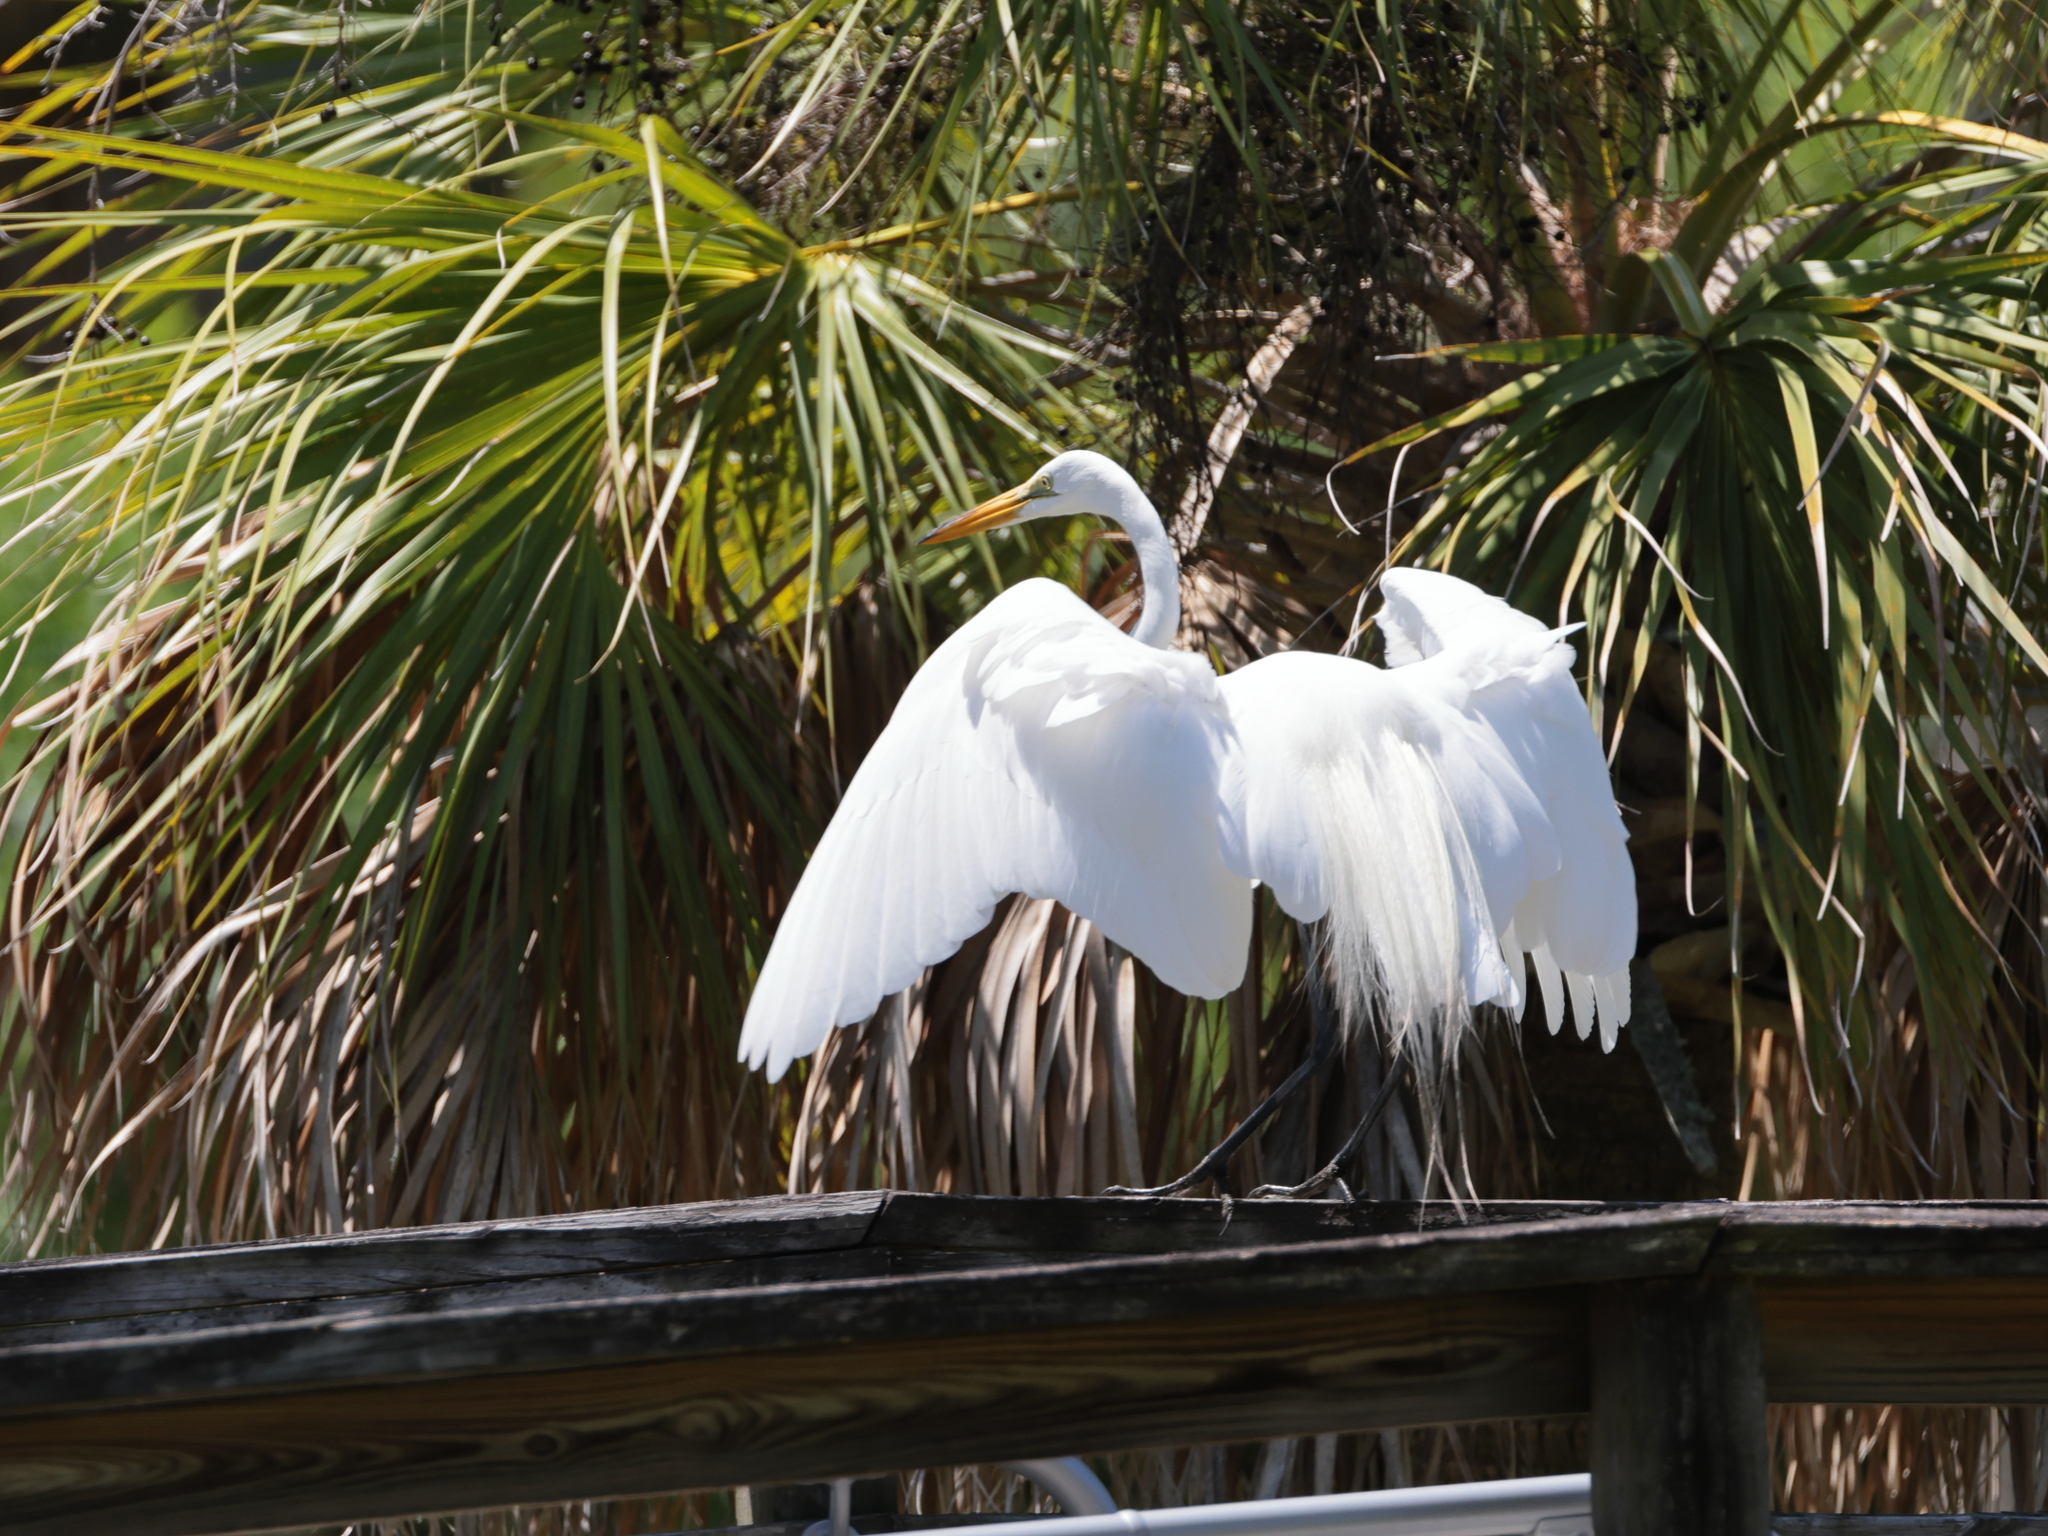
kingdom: Animalia
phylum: Chordata
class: Aves
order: Pelecaniformes
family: Ardeidae
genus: Ardea
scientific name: Ardea alba
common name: Great egret
